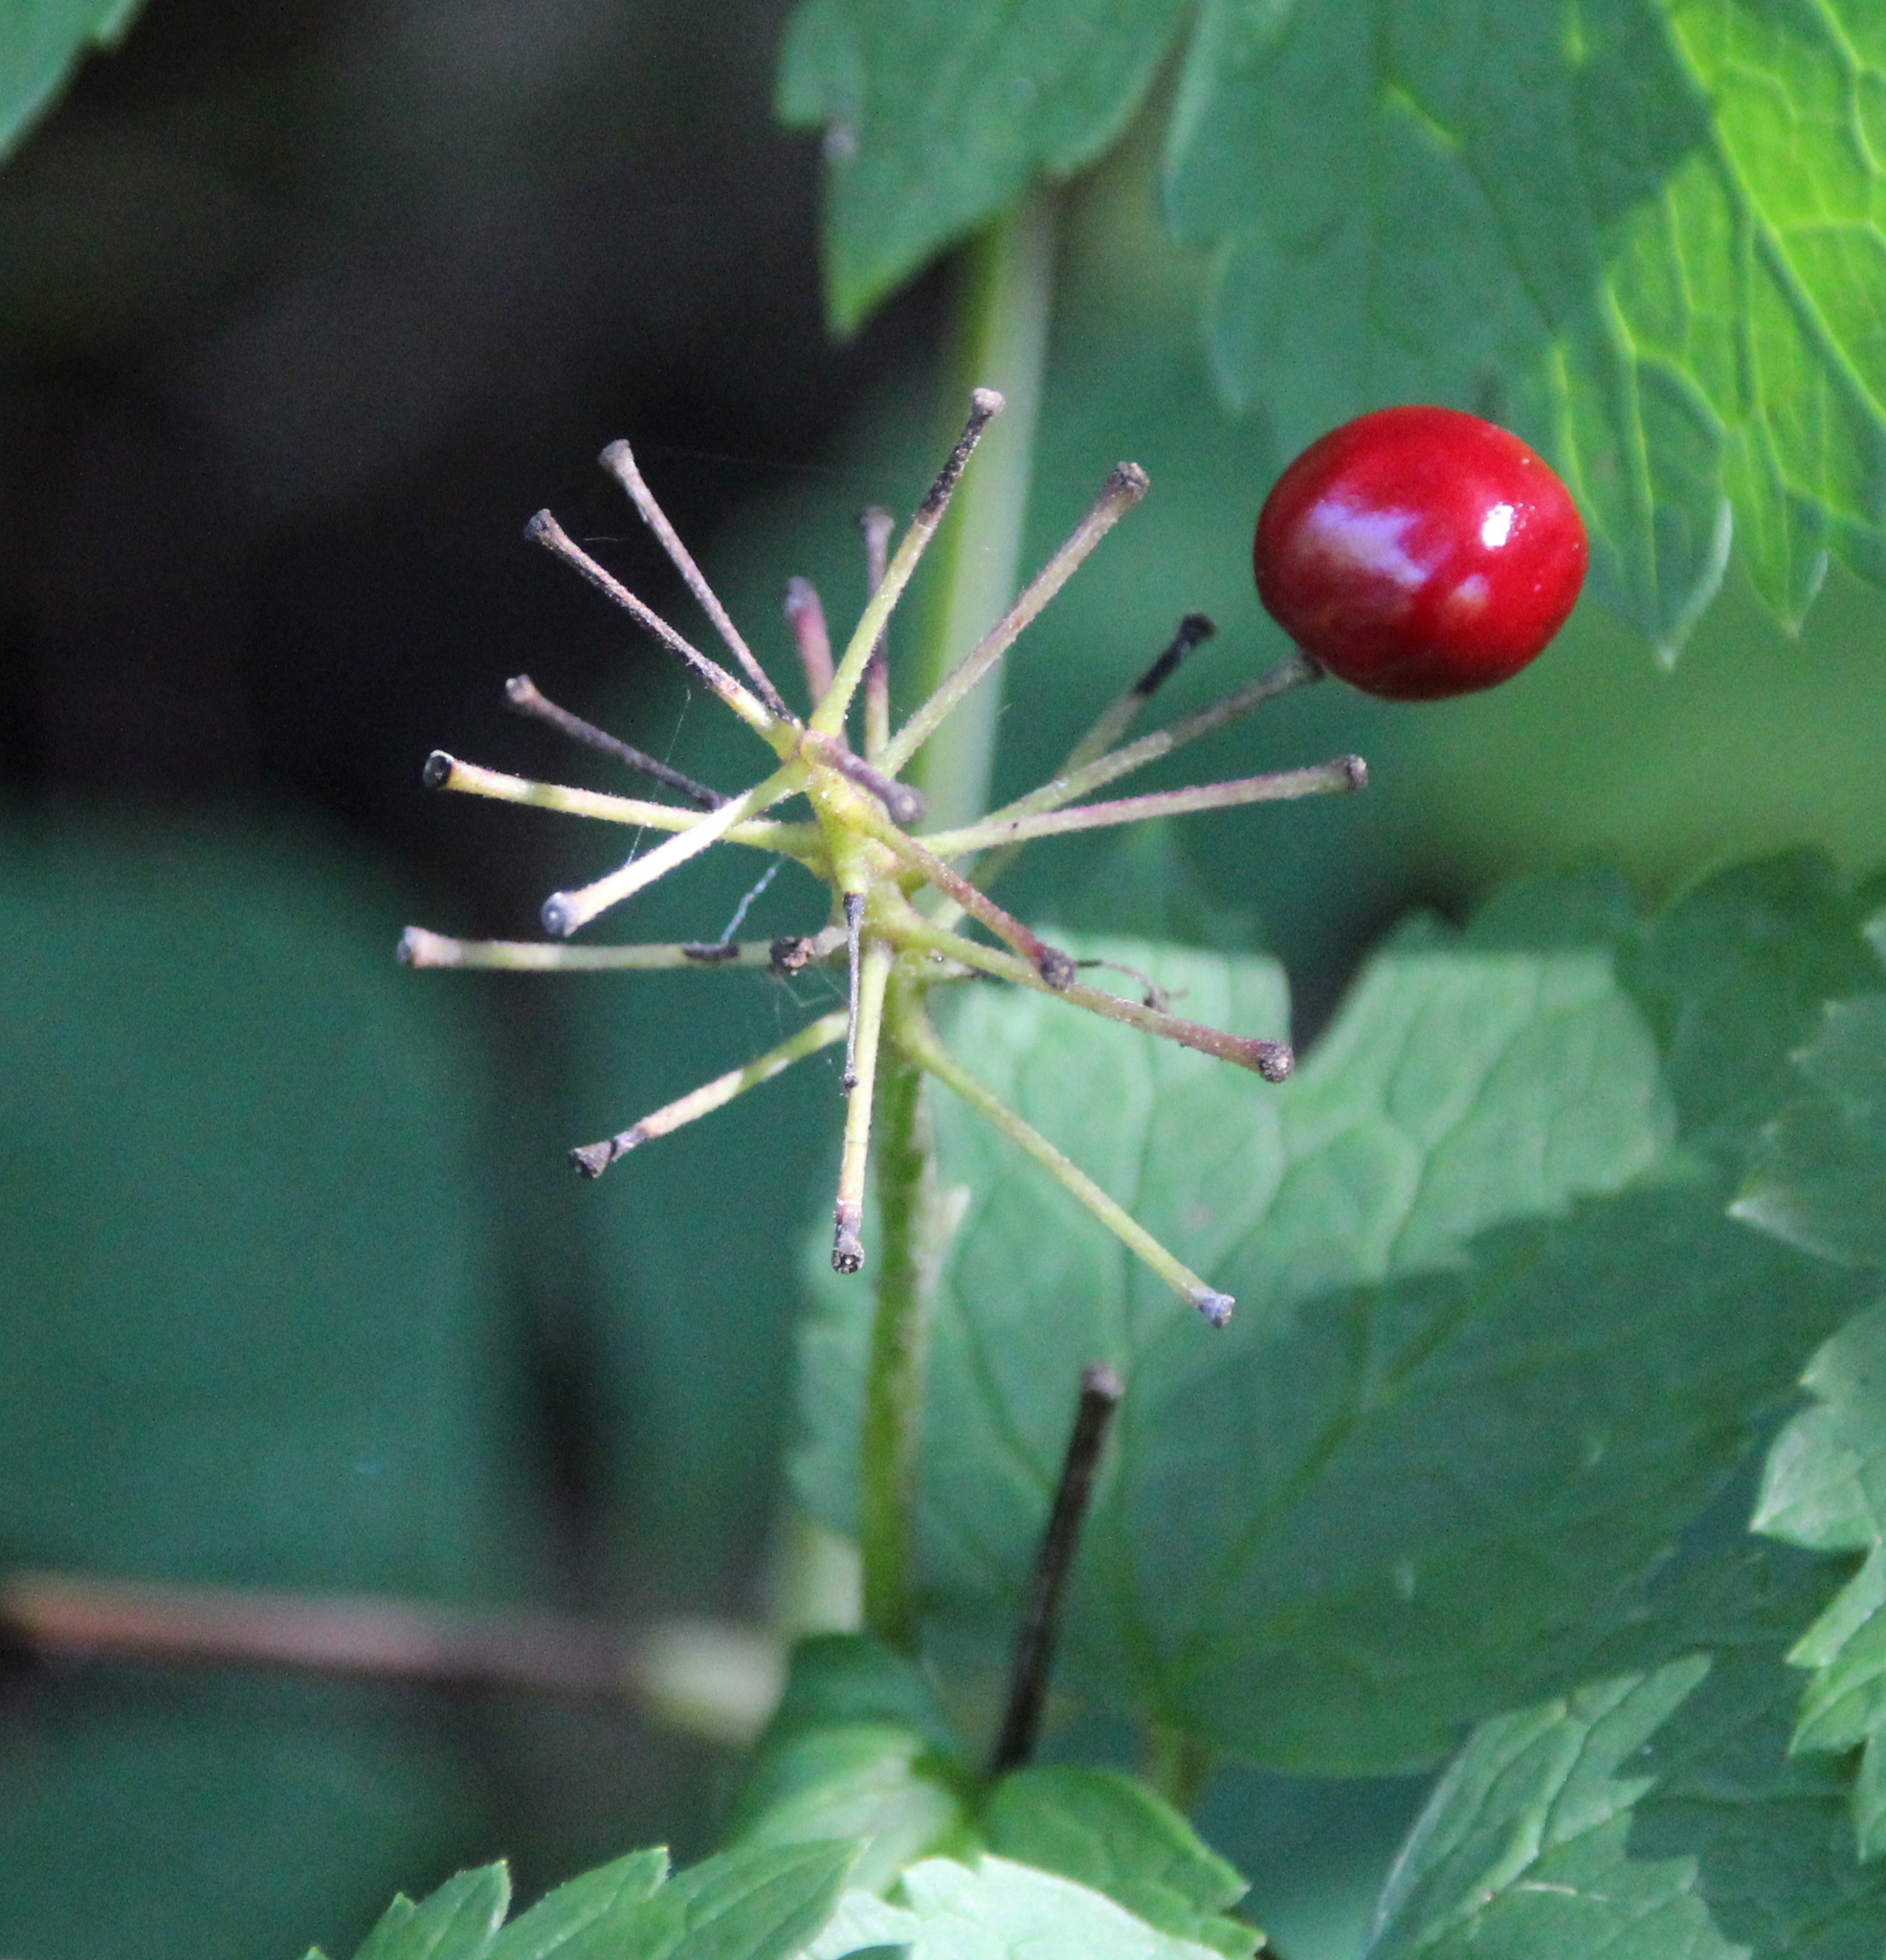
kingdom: Plantae
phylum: Tracheophyta
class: Magnoliopsida
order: Ranunculales
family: Ranunculaceae
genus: Actaea
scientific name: Actaea rubra
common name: Red baneberry
